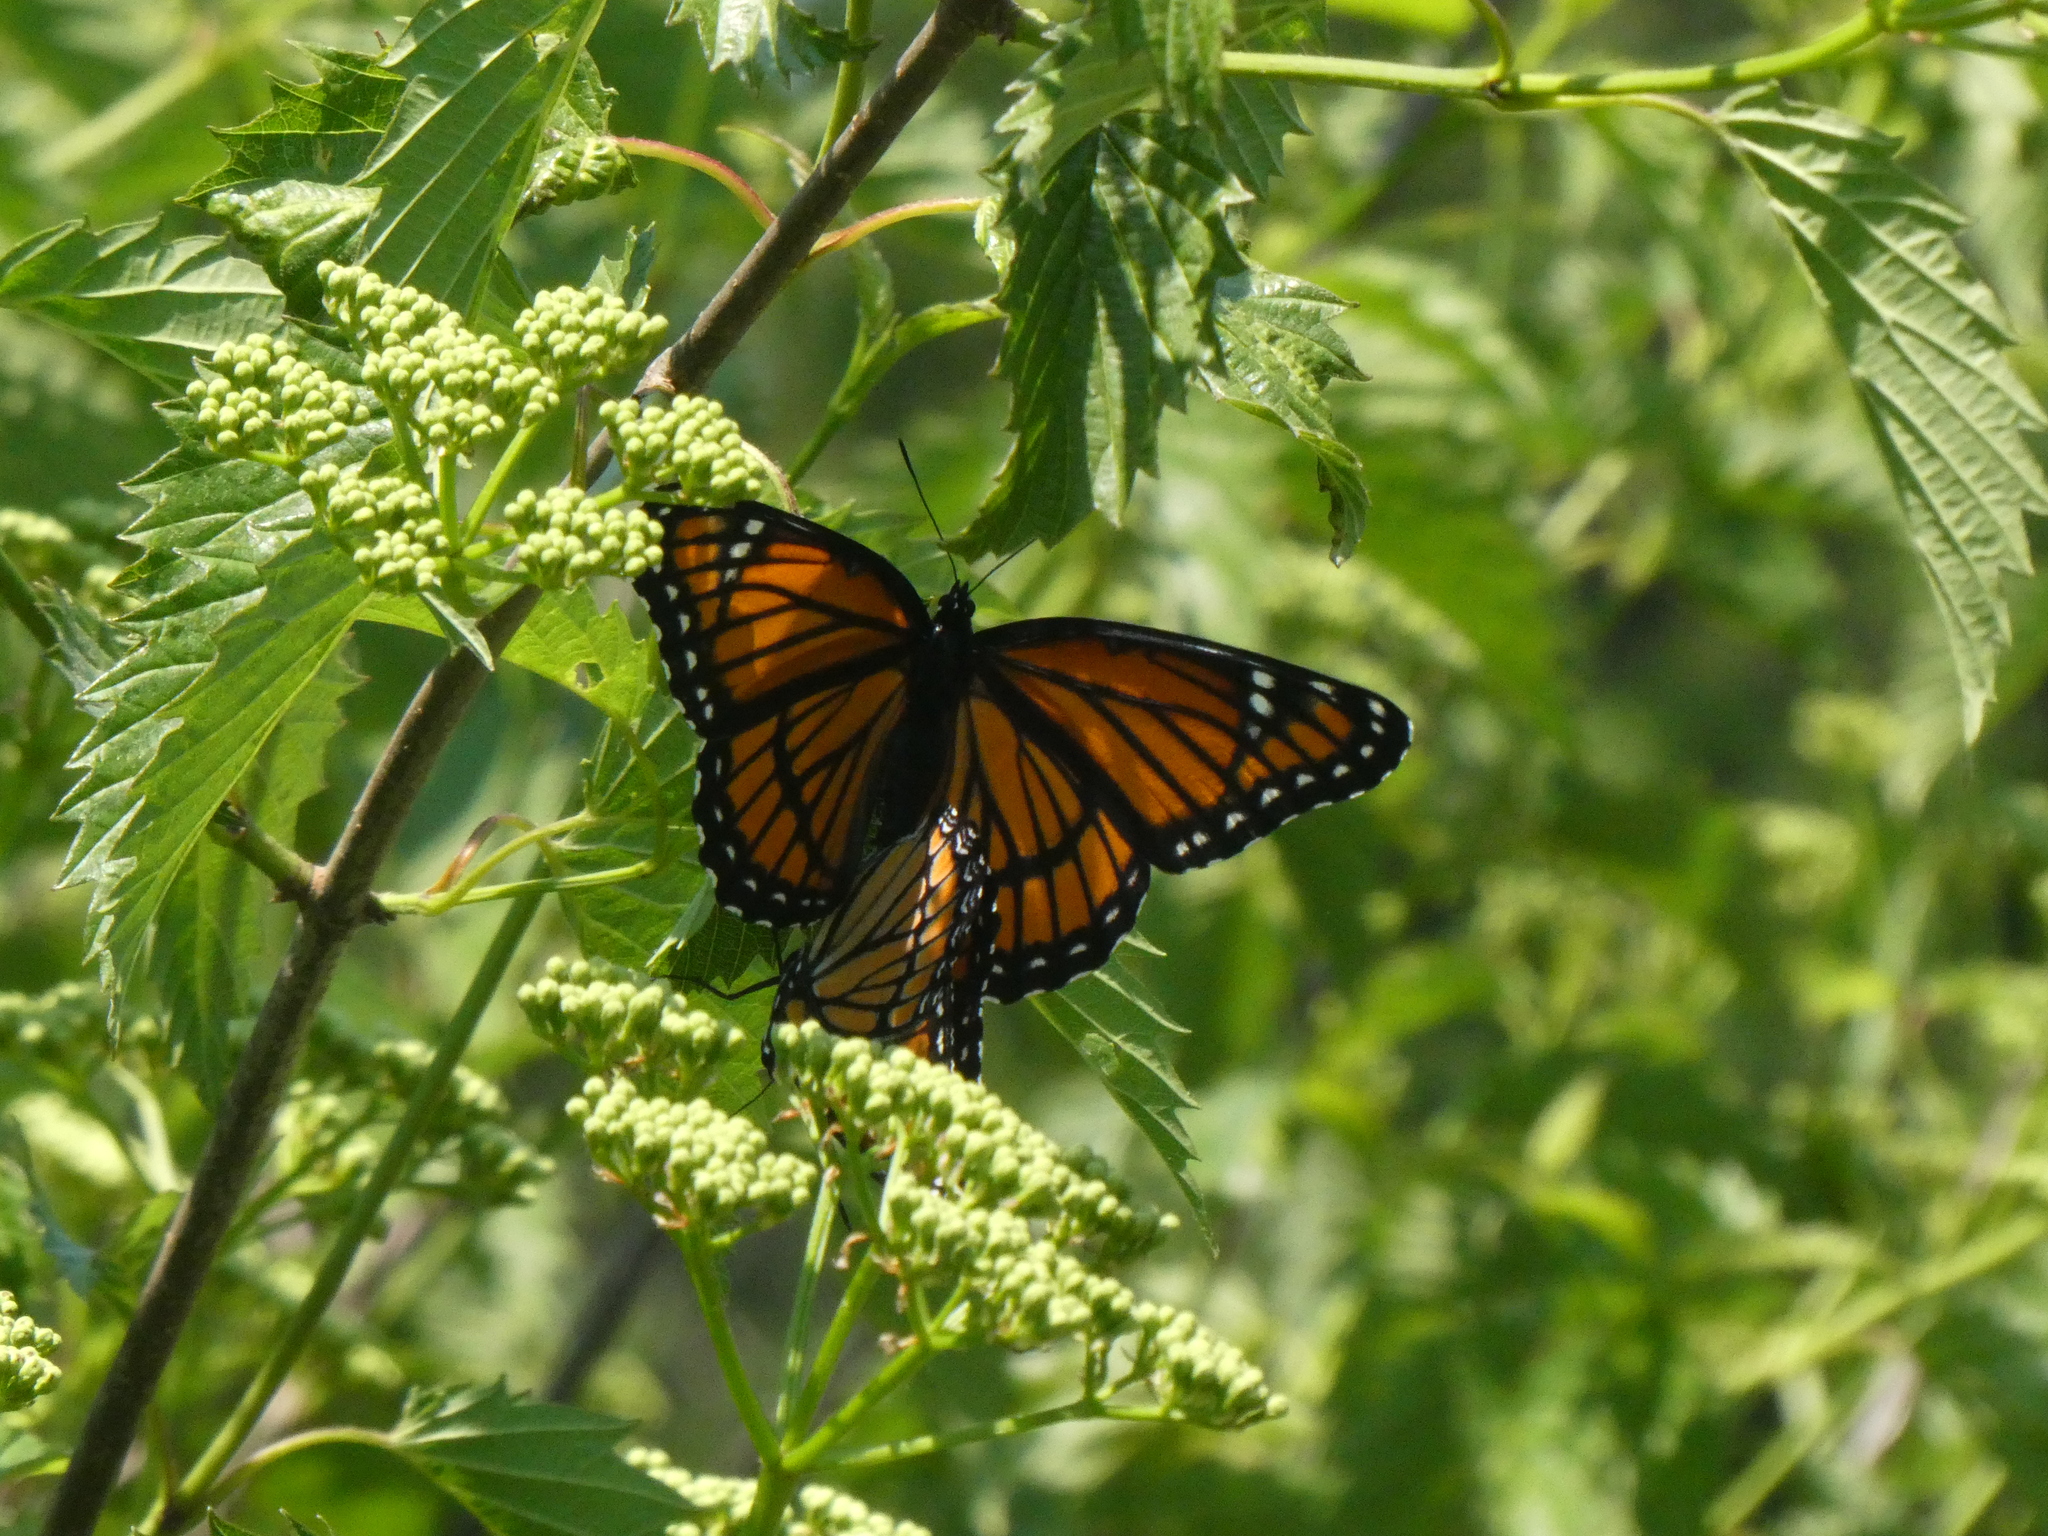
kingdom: Animalia
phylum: Arthropoda
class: Insecta
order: Lepidoptera
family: Nymphalidae
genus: Limenitis
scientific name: Limenitis archippus
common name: Viceroy
